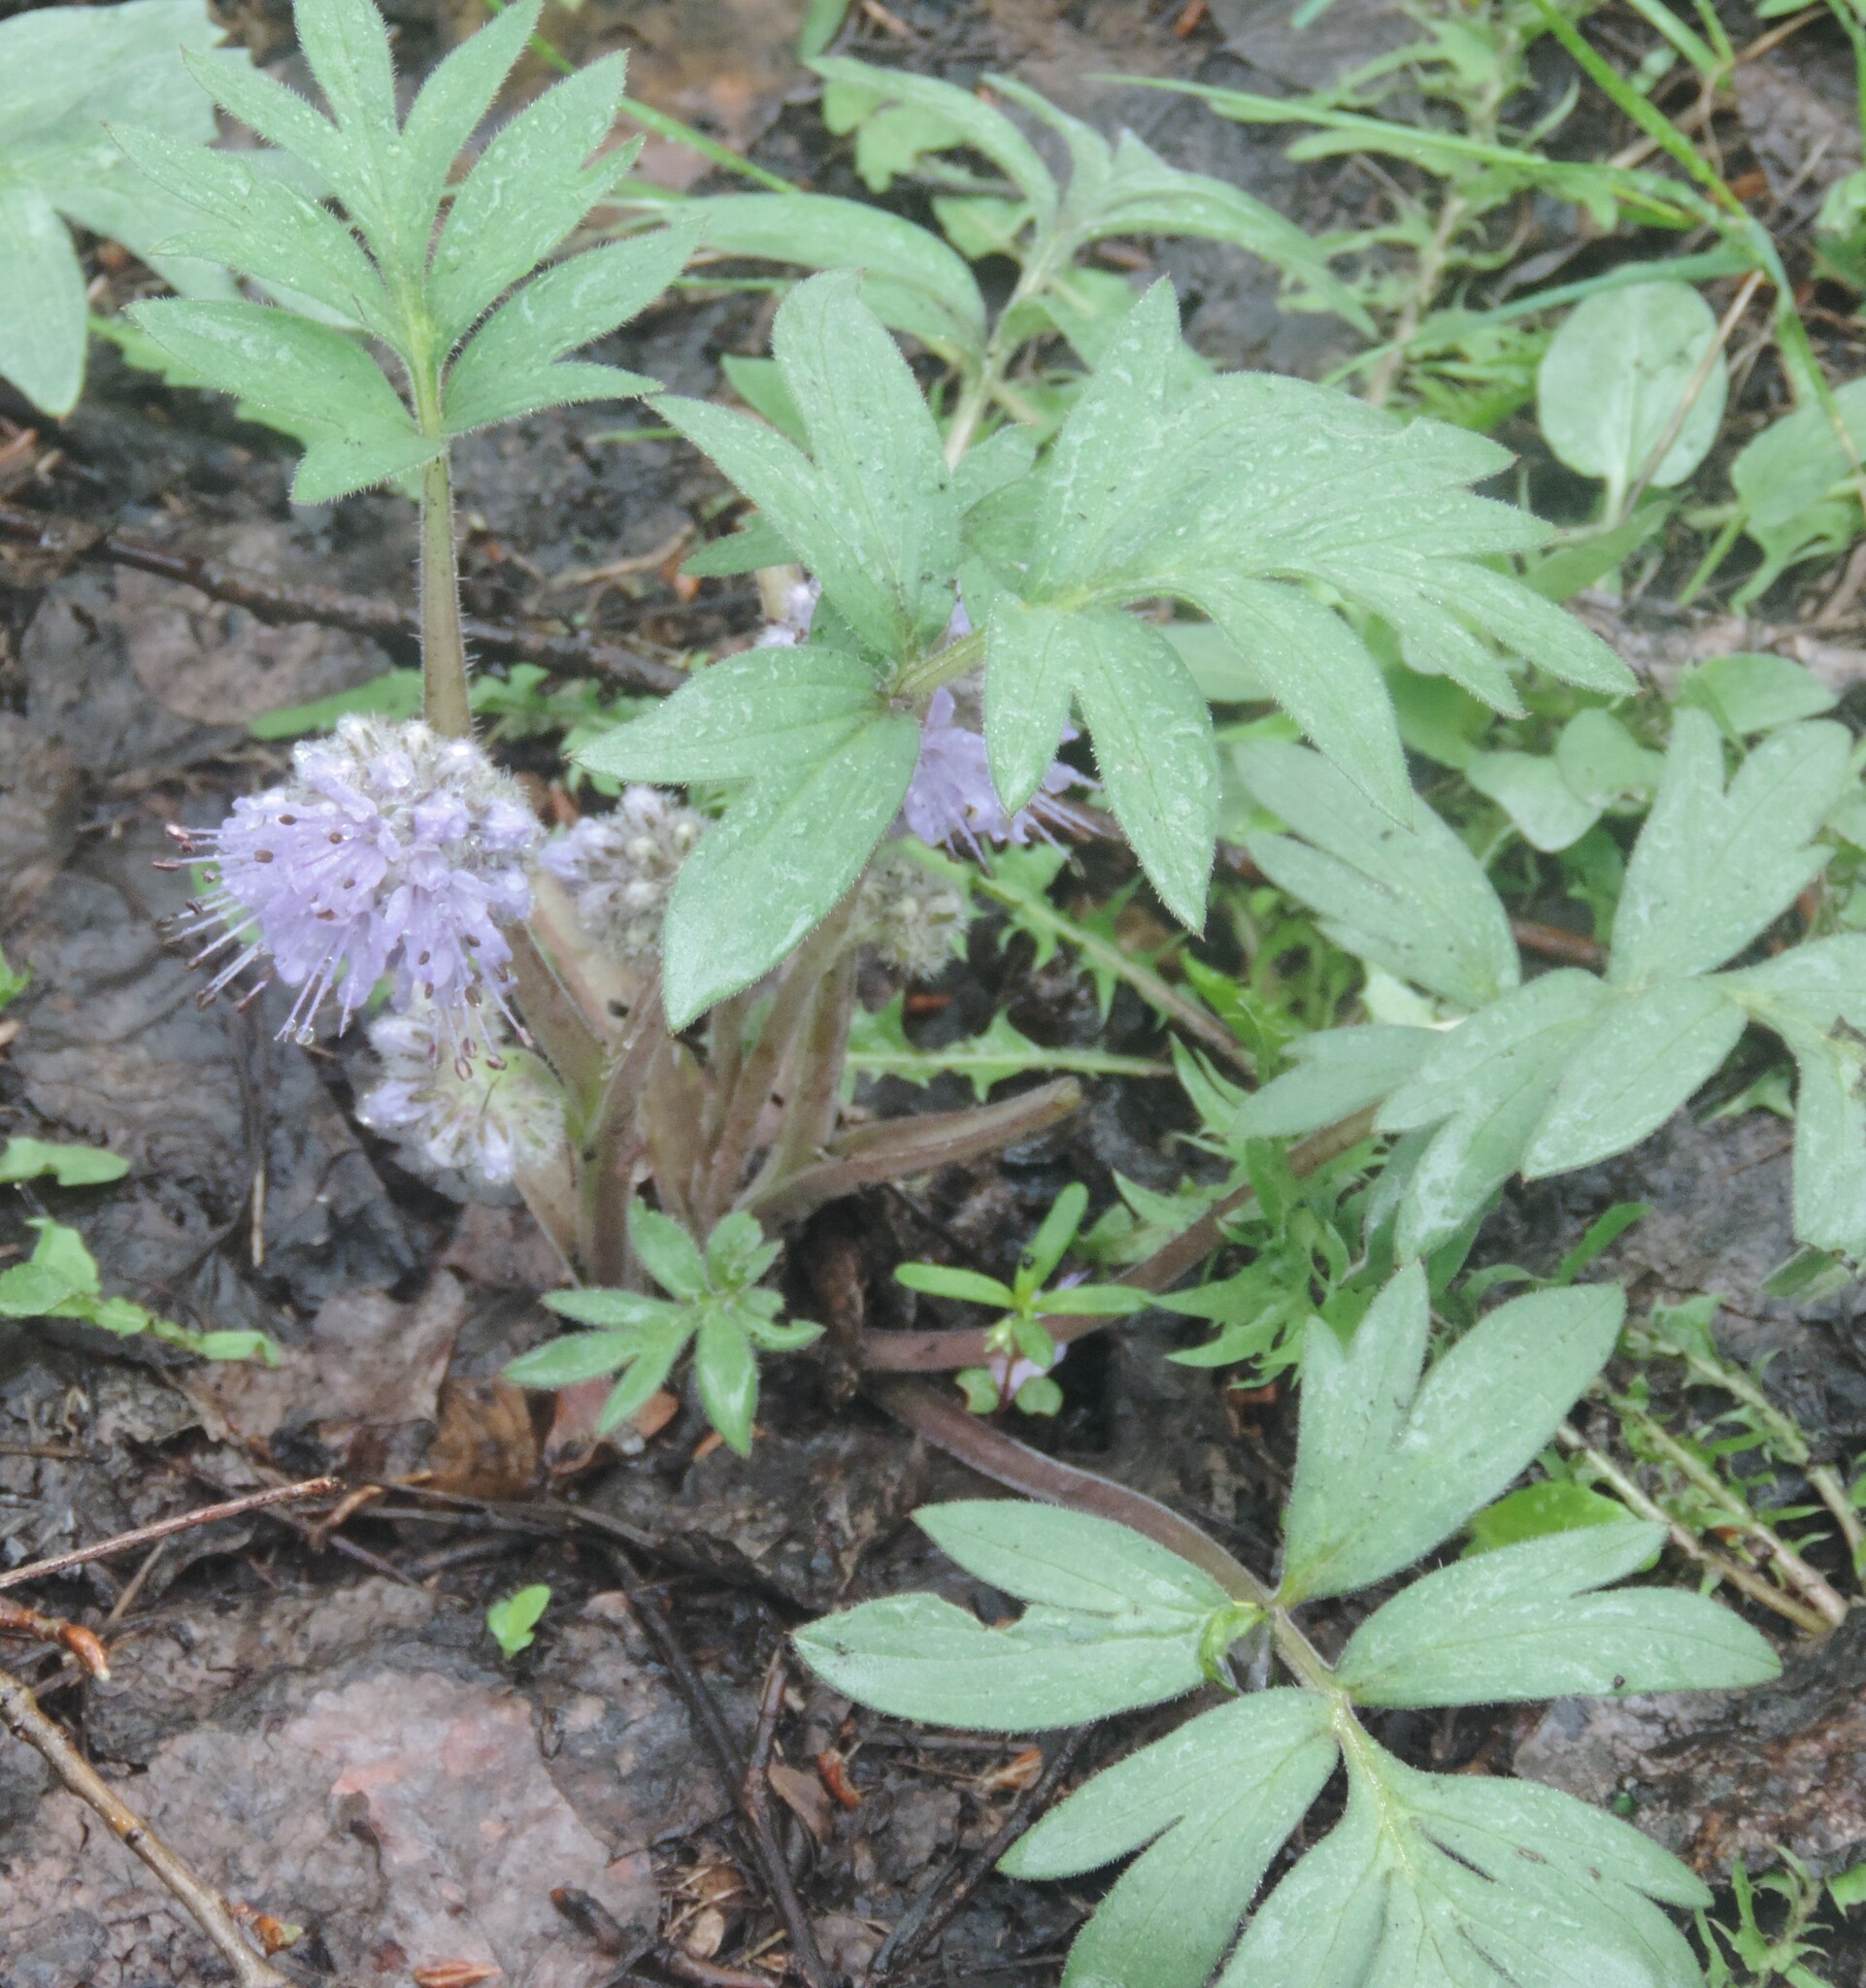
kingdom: Plantae
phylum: Tracheophyta
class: Magnoliopsida
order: Boraginales
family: Hydrophyllaceae
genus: Hydrophyllum
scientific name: Hydrophyllum capitatum
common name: Woollen-breeches
